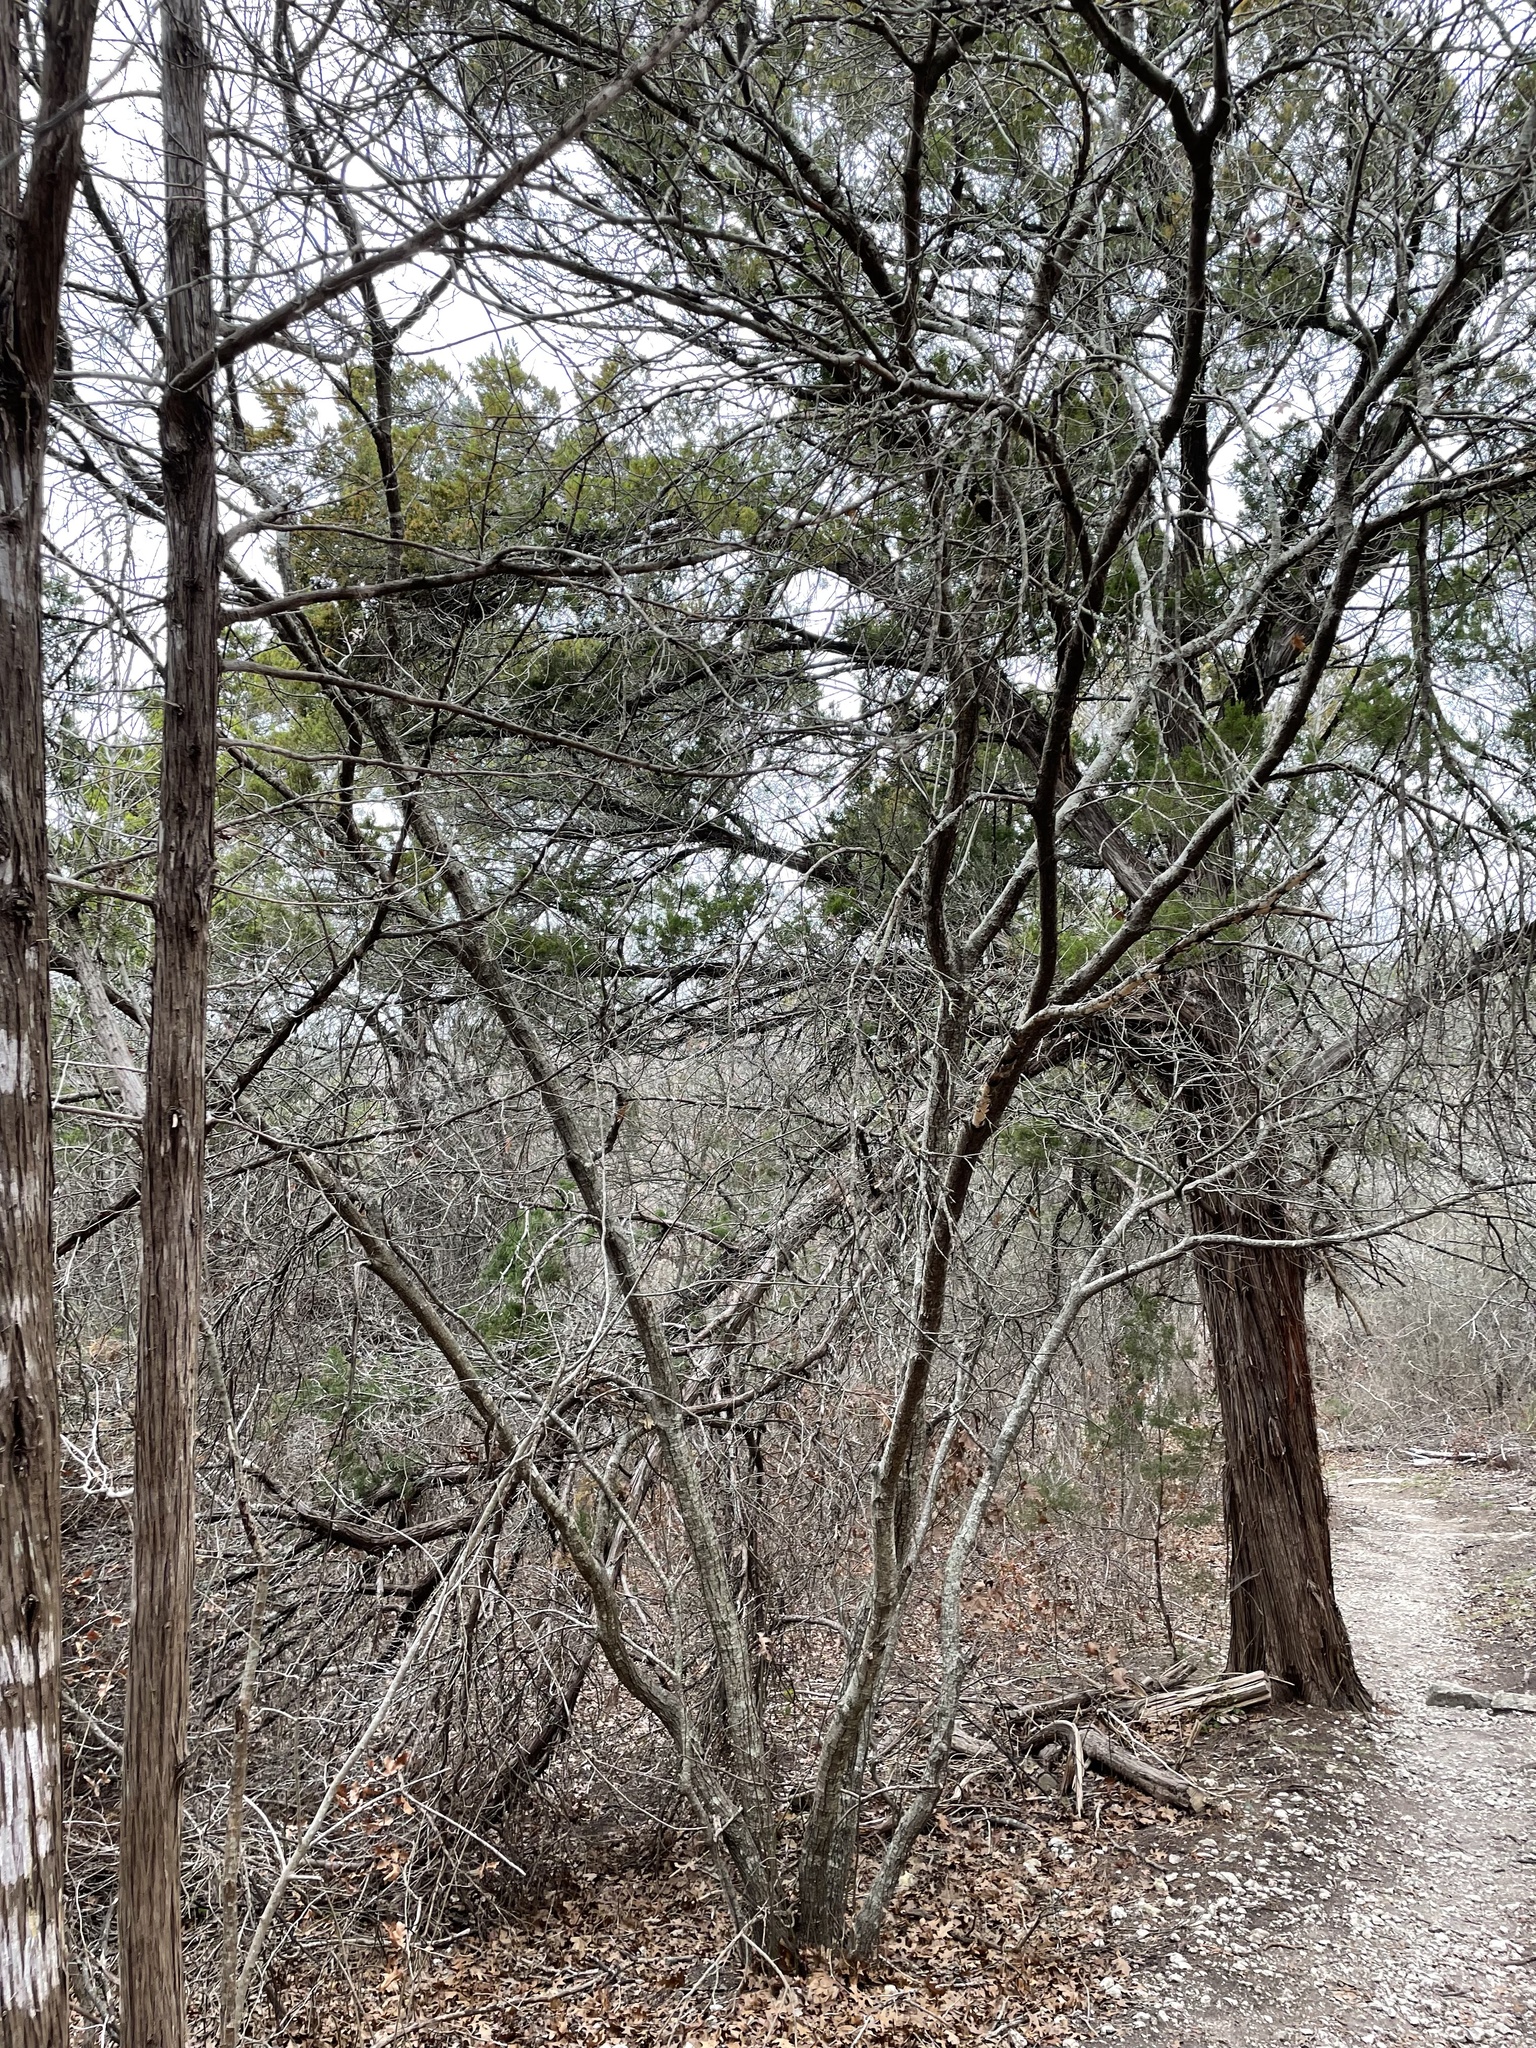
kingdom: Plantae
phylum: Tracheophyta
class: Magnoliopsida
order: Fagales
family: Fagaceae
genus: Quercus
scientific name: Quercus buckleyi
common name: Buckley oak
